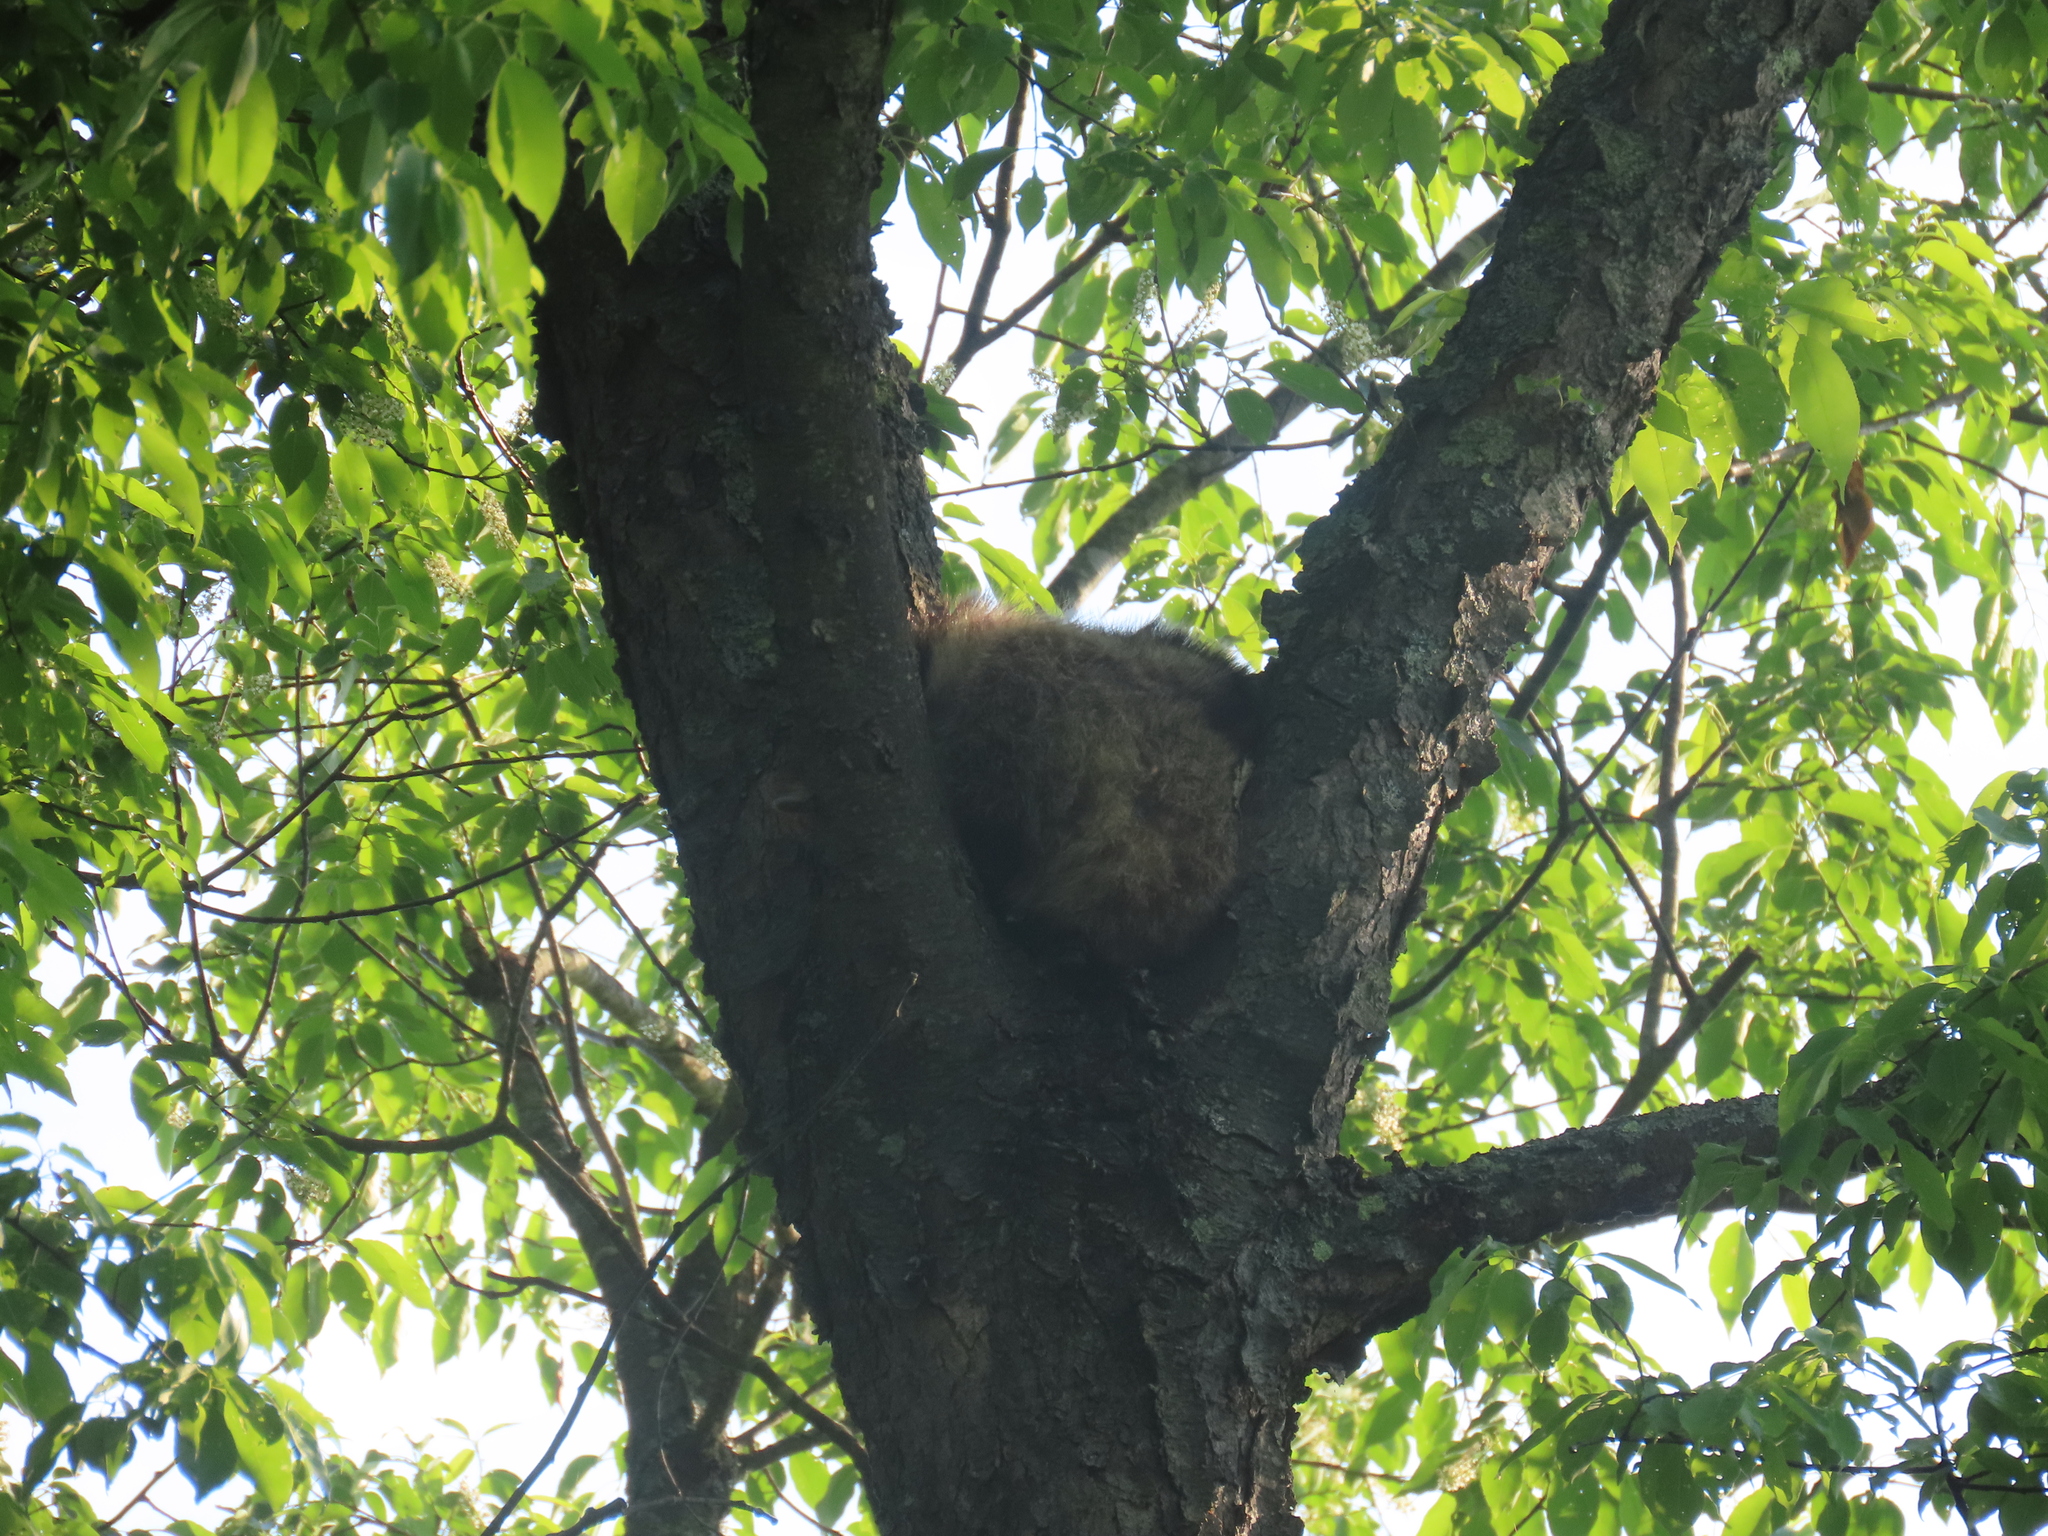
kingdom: Animalia
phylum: Chordata
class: Mammalia
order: Carnivora
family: Procyonidae
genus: Procyon
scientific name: Procyon lotor
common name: Raccoon
